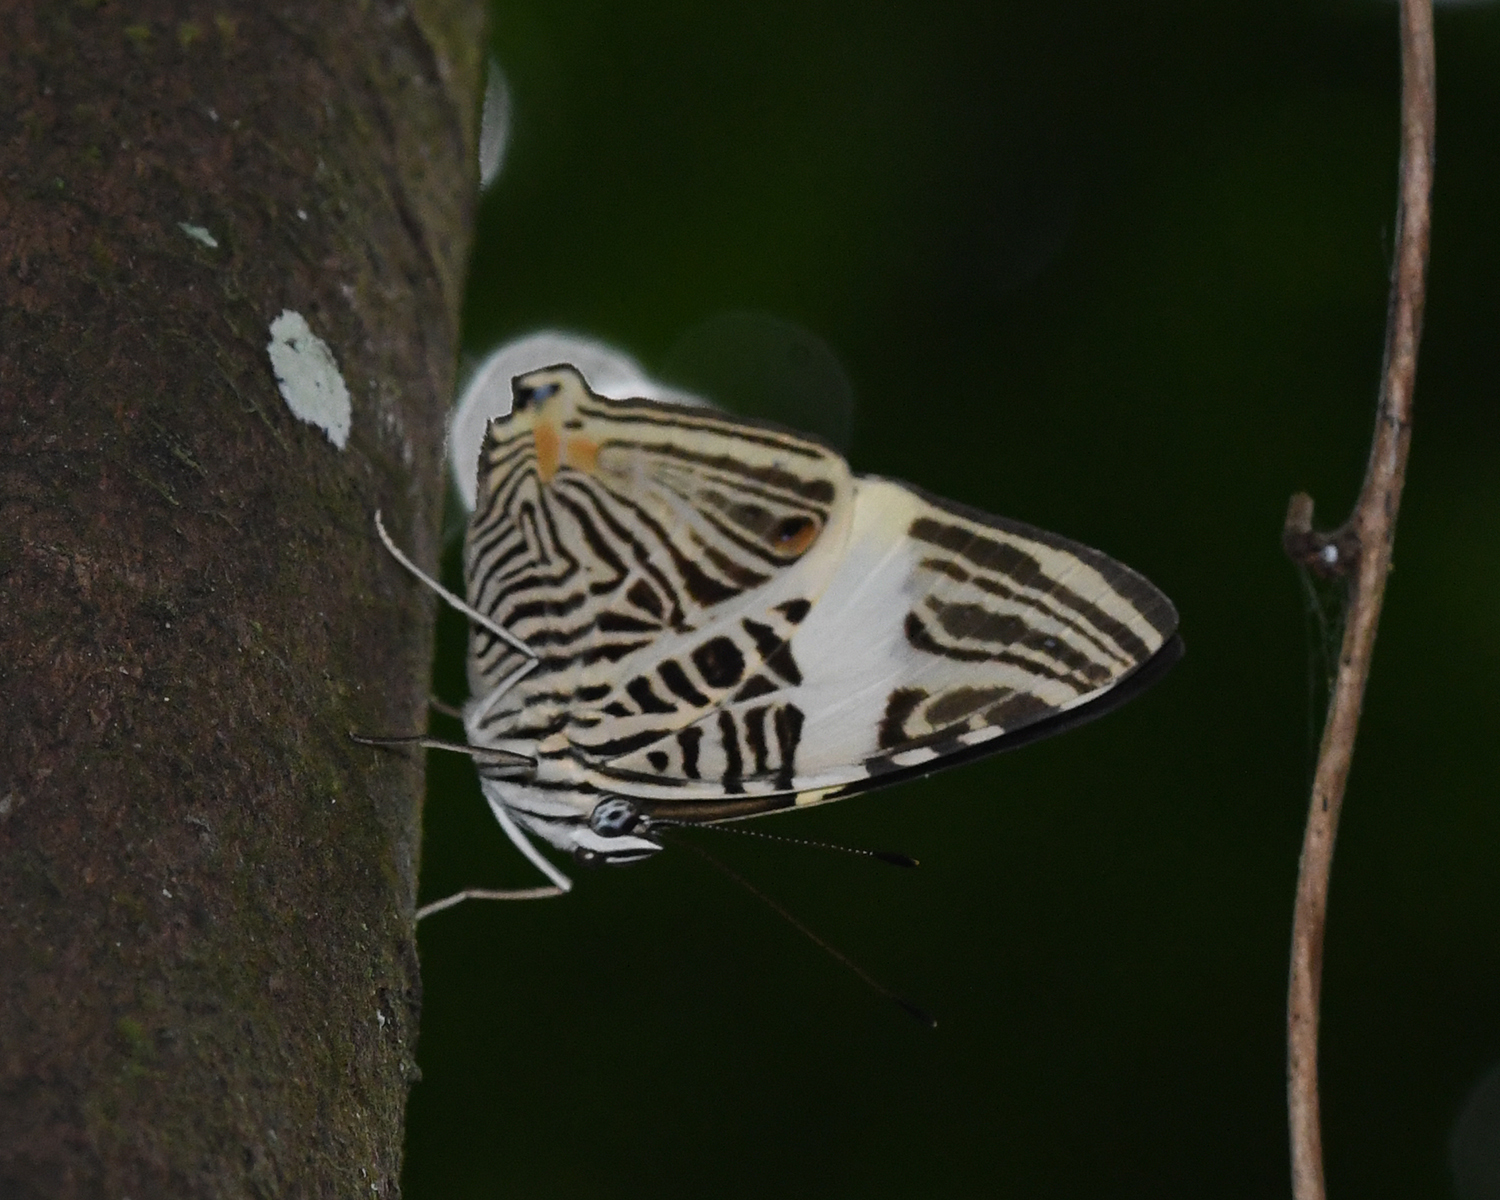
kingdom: Animalia
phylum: Arthropoda
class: Insecta
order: Lepidoptera
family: Nymphalidae
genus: Colobura
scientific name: Colobura dirce
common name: Dirce beauty
